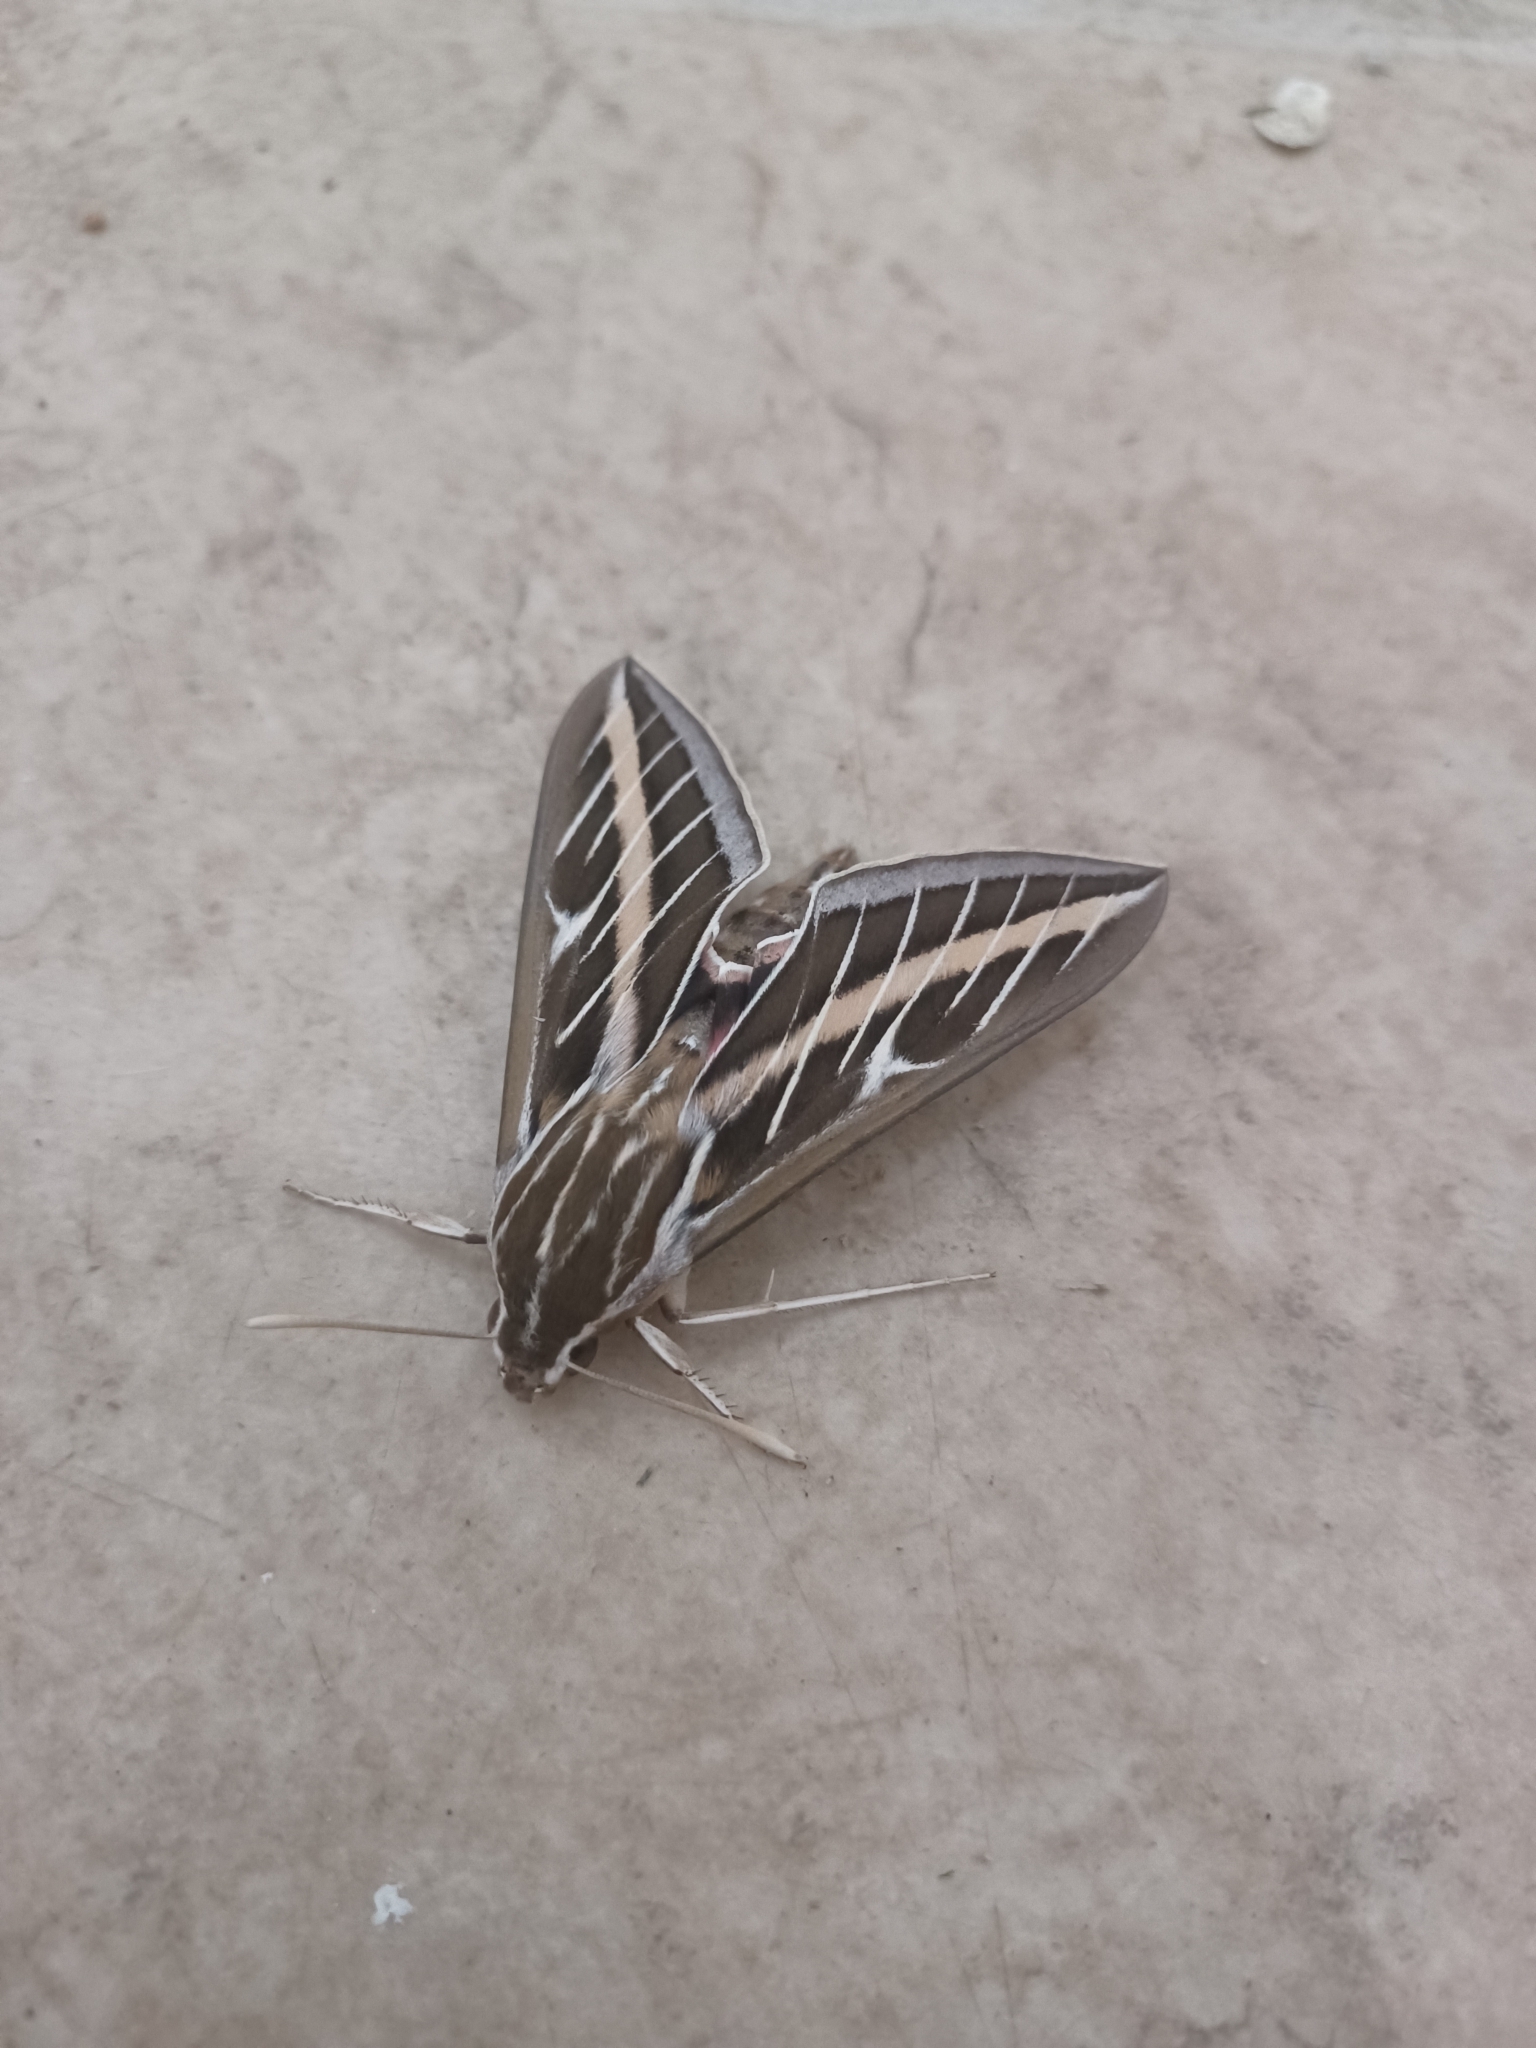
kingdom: Animalia
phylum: Arthropoda
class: Insecta
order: Lepidoptera
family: Sphingidae
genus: Hyles
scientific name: Hyles lineata
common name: White-lined sphinx
